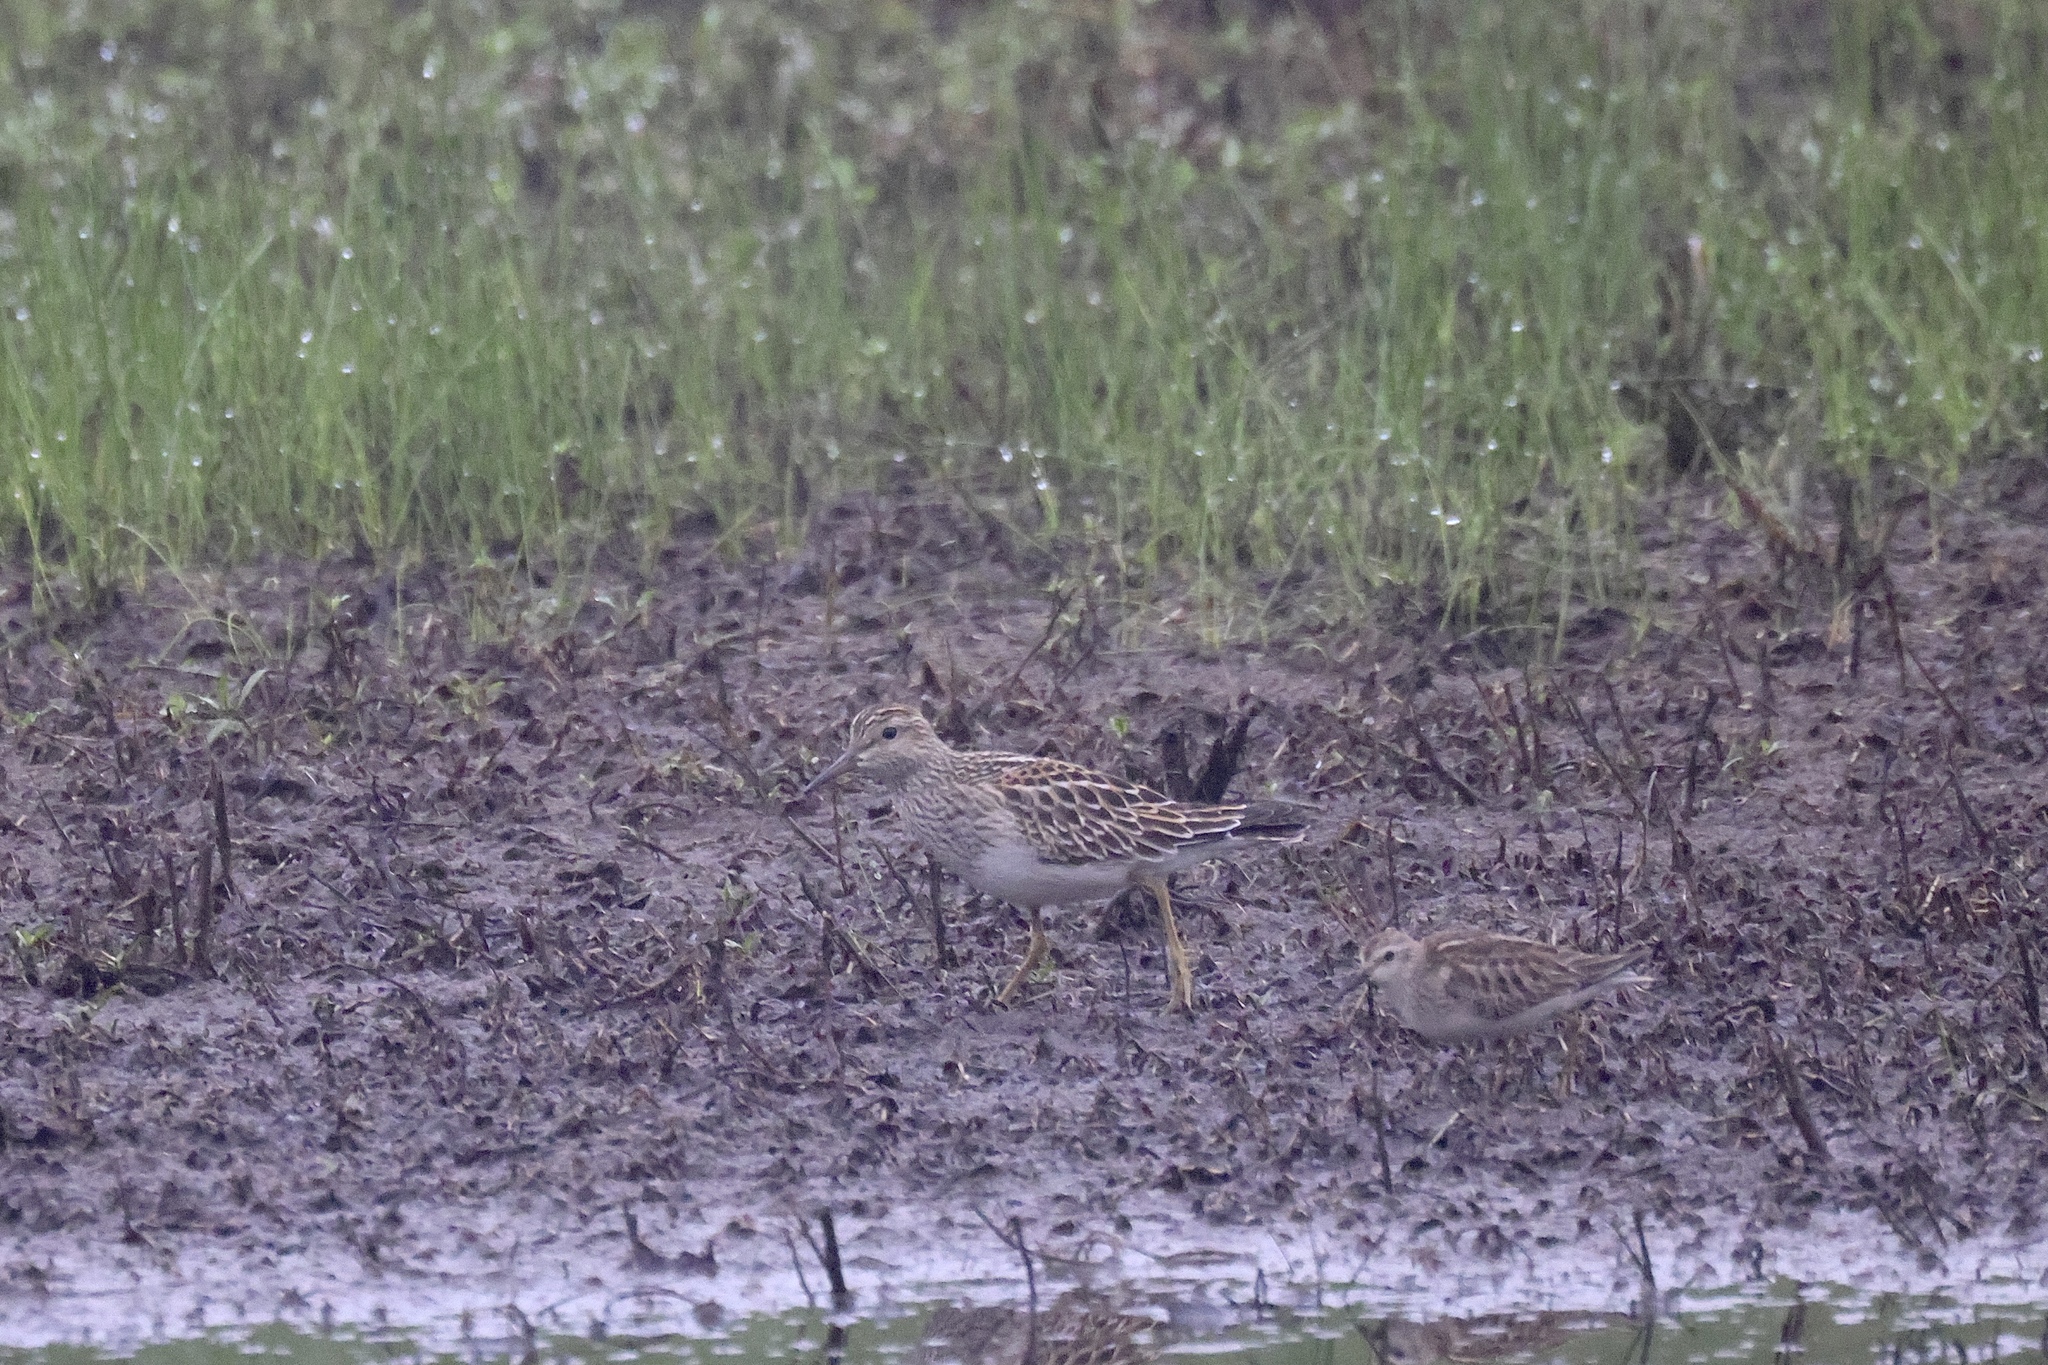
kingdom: Animalia
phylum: Chordata
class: Aves
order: Charadriiformes
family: Scolopacidae
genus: Calidris
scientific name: Calidris melanotos
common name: Pectoral sandpiper
